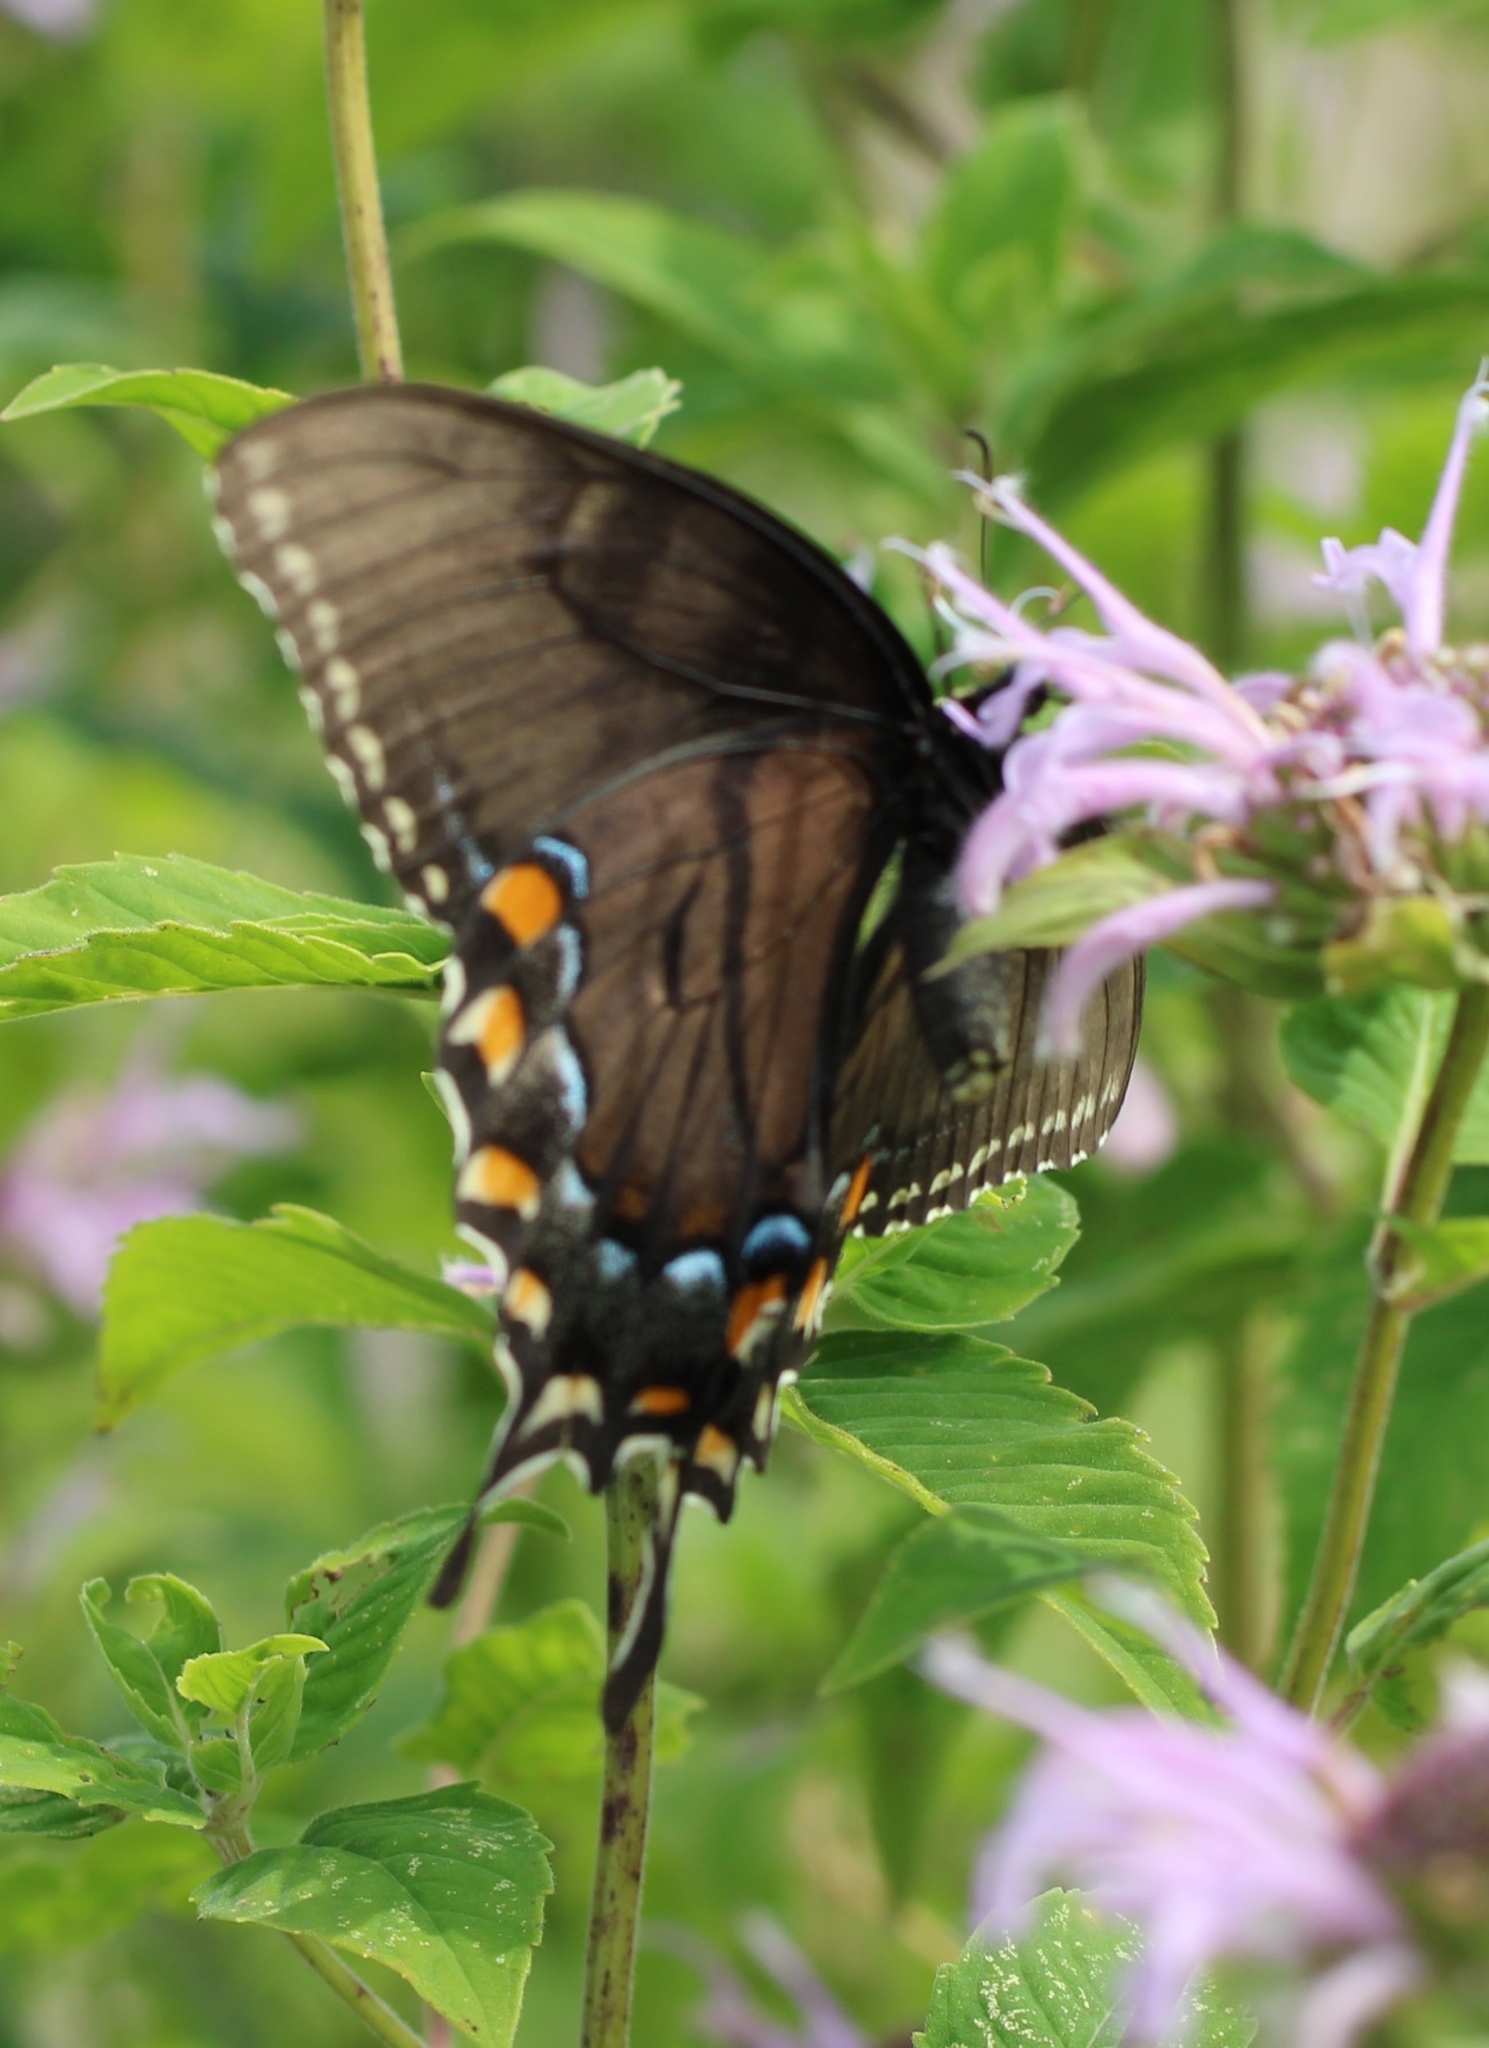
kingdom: Animalia
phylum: Arthropoda
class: Insecta
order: Lepidoptera
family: Papilionidae
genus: Papilio
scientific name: Papilio glaucus
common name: Tiger swallowtail
